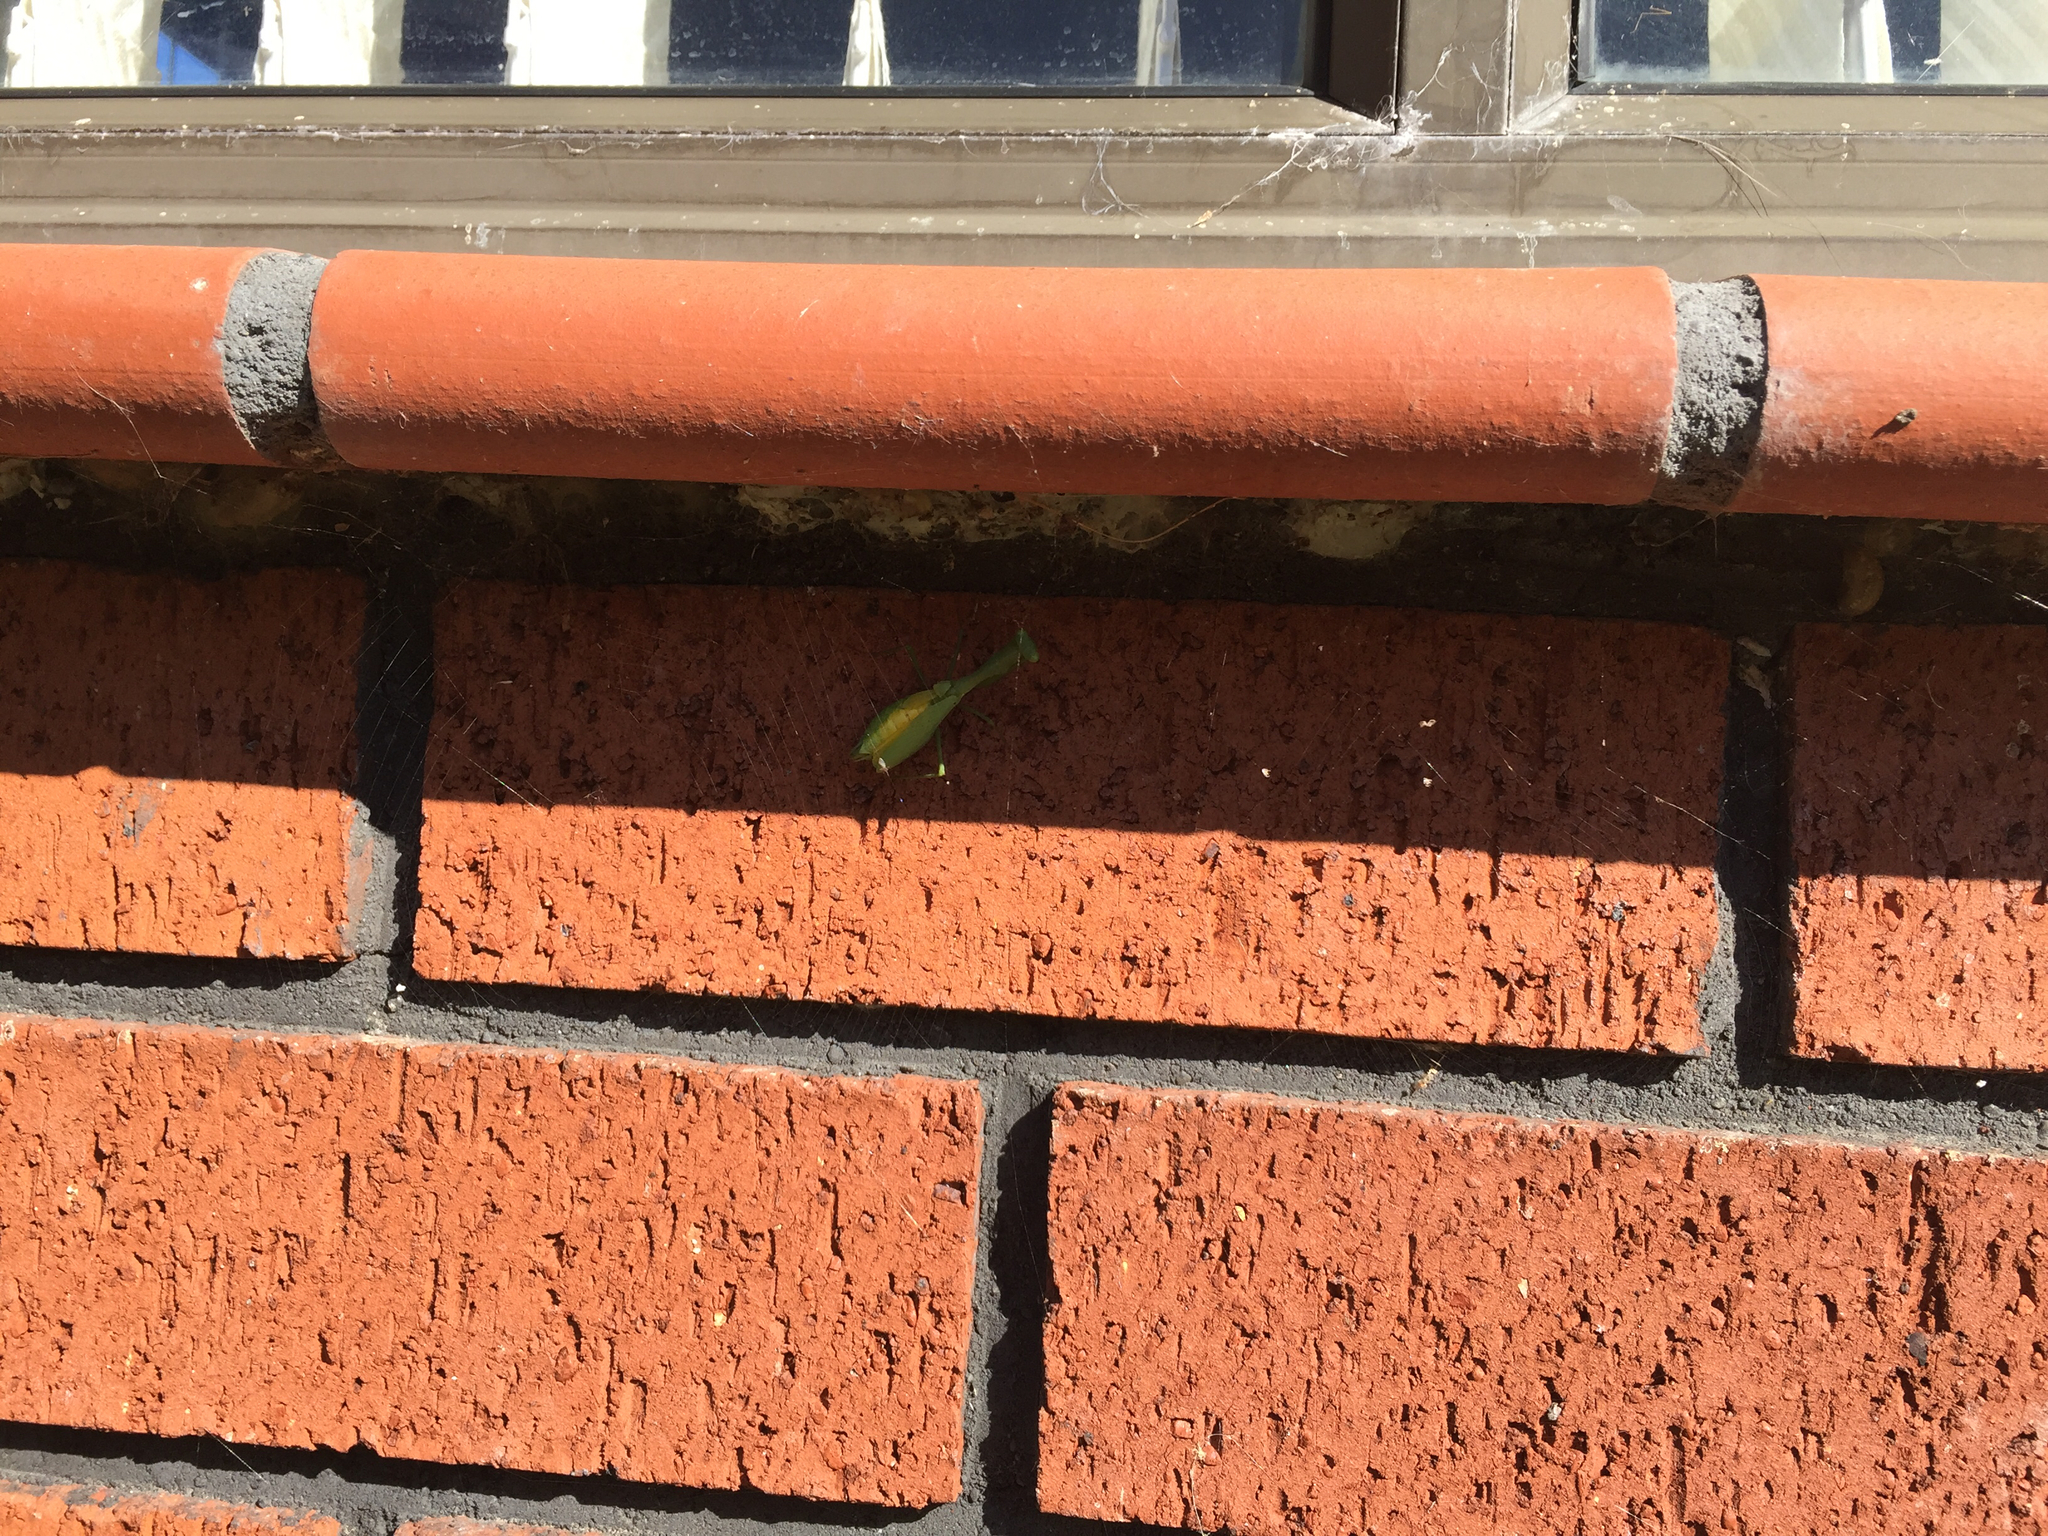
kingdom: Animalia
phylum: Arthropoda
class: Insecta
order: Mantodea
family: Miomantidae
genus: Miomantis
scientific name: Miomantis caffra
